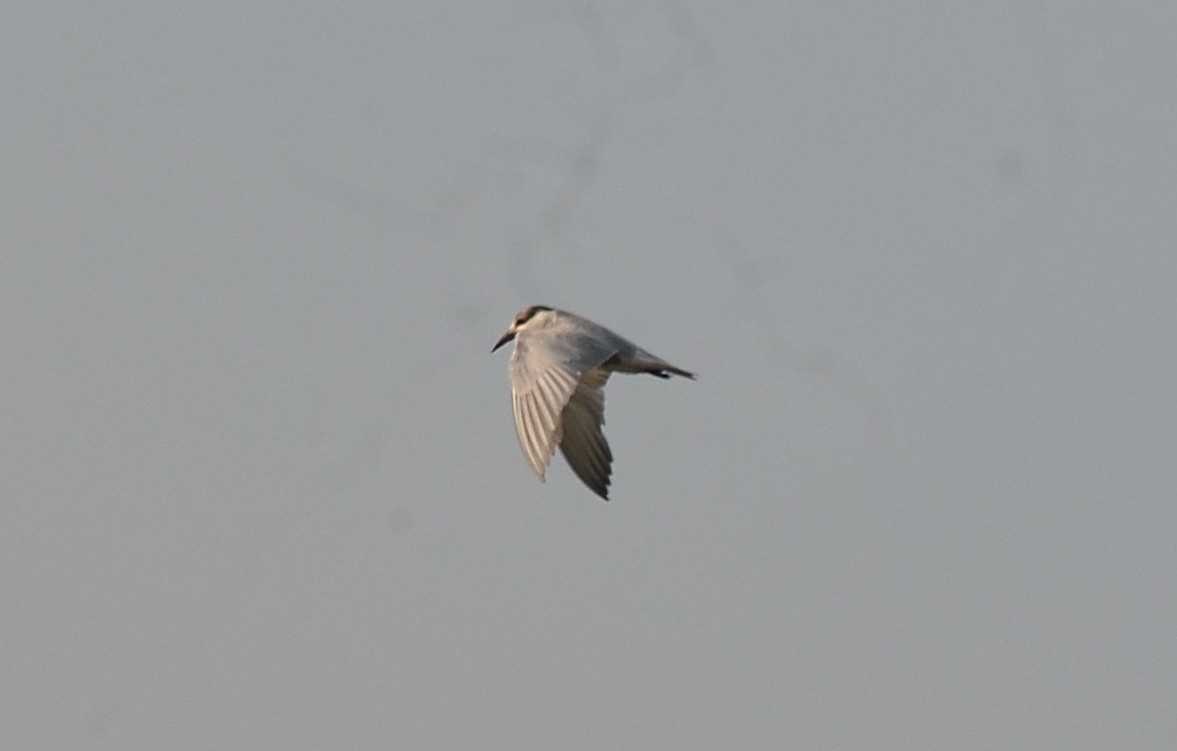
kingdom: Animalia
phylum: Chordata
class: Aves
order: Charadriiformes
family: Laridae
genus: Chlidonias
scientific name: Chlidonias hybrida
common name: Whiskered tern
